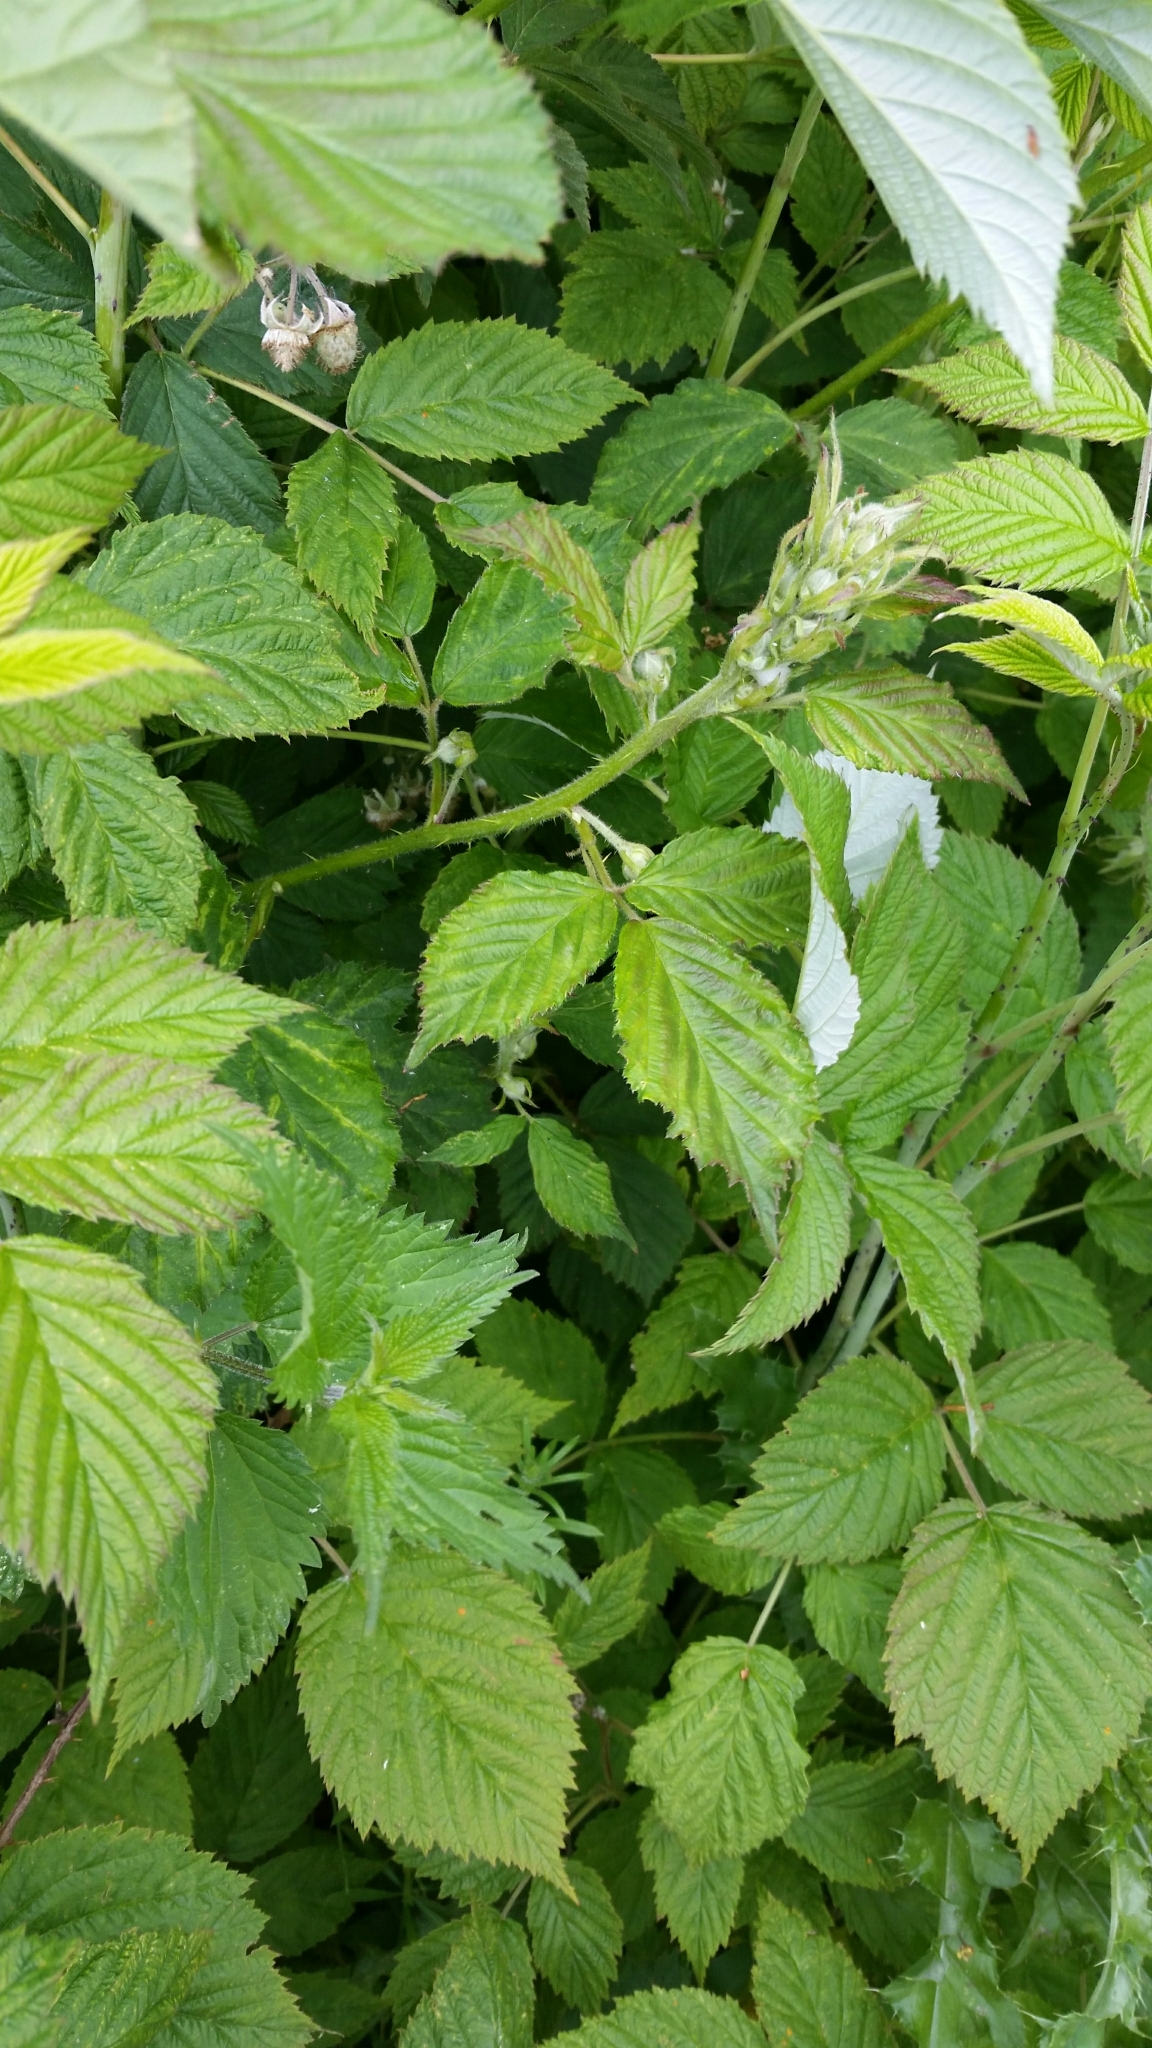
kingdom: Plantae
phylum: Tracheophyta
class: Magnoliopsida
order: Rosales
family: Rosaceae
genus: Rubus
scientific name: Rubus idaeus
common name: Raspberry
